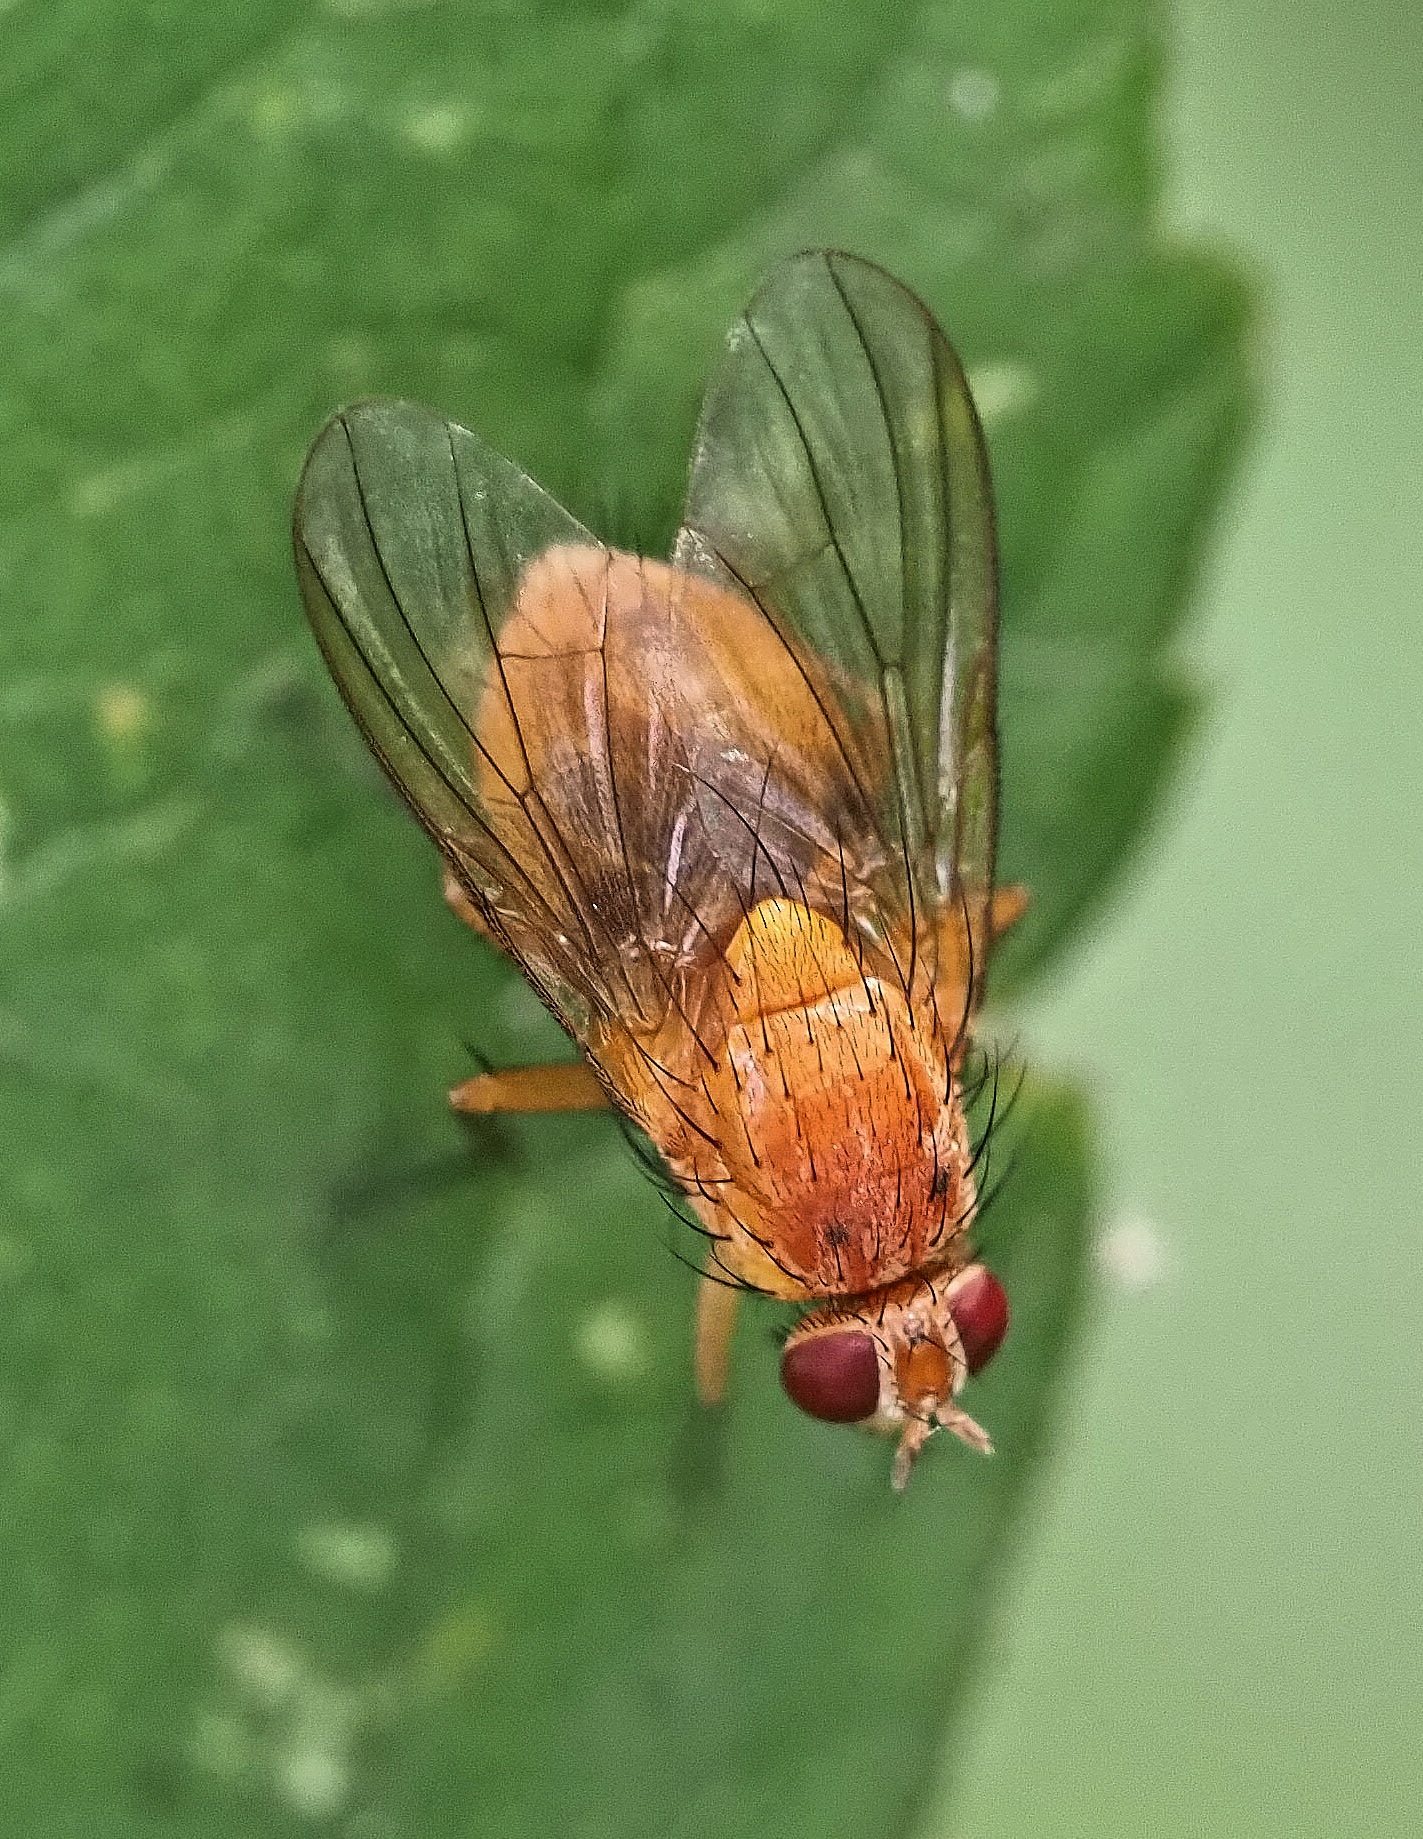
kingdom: Animalia
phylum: Arthropoda
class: Insecta
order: Diptera
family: Muscidae
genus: Phaonia
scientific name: Phaonia pallida
